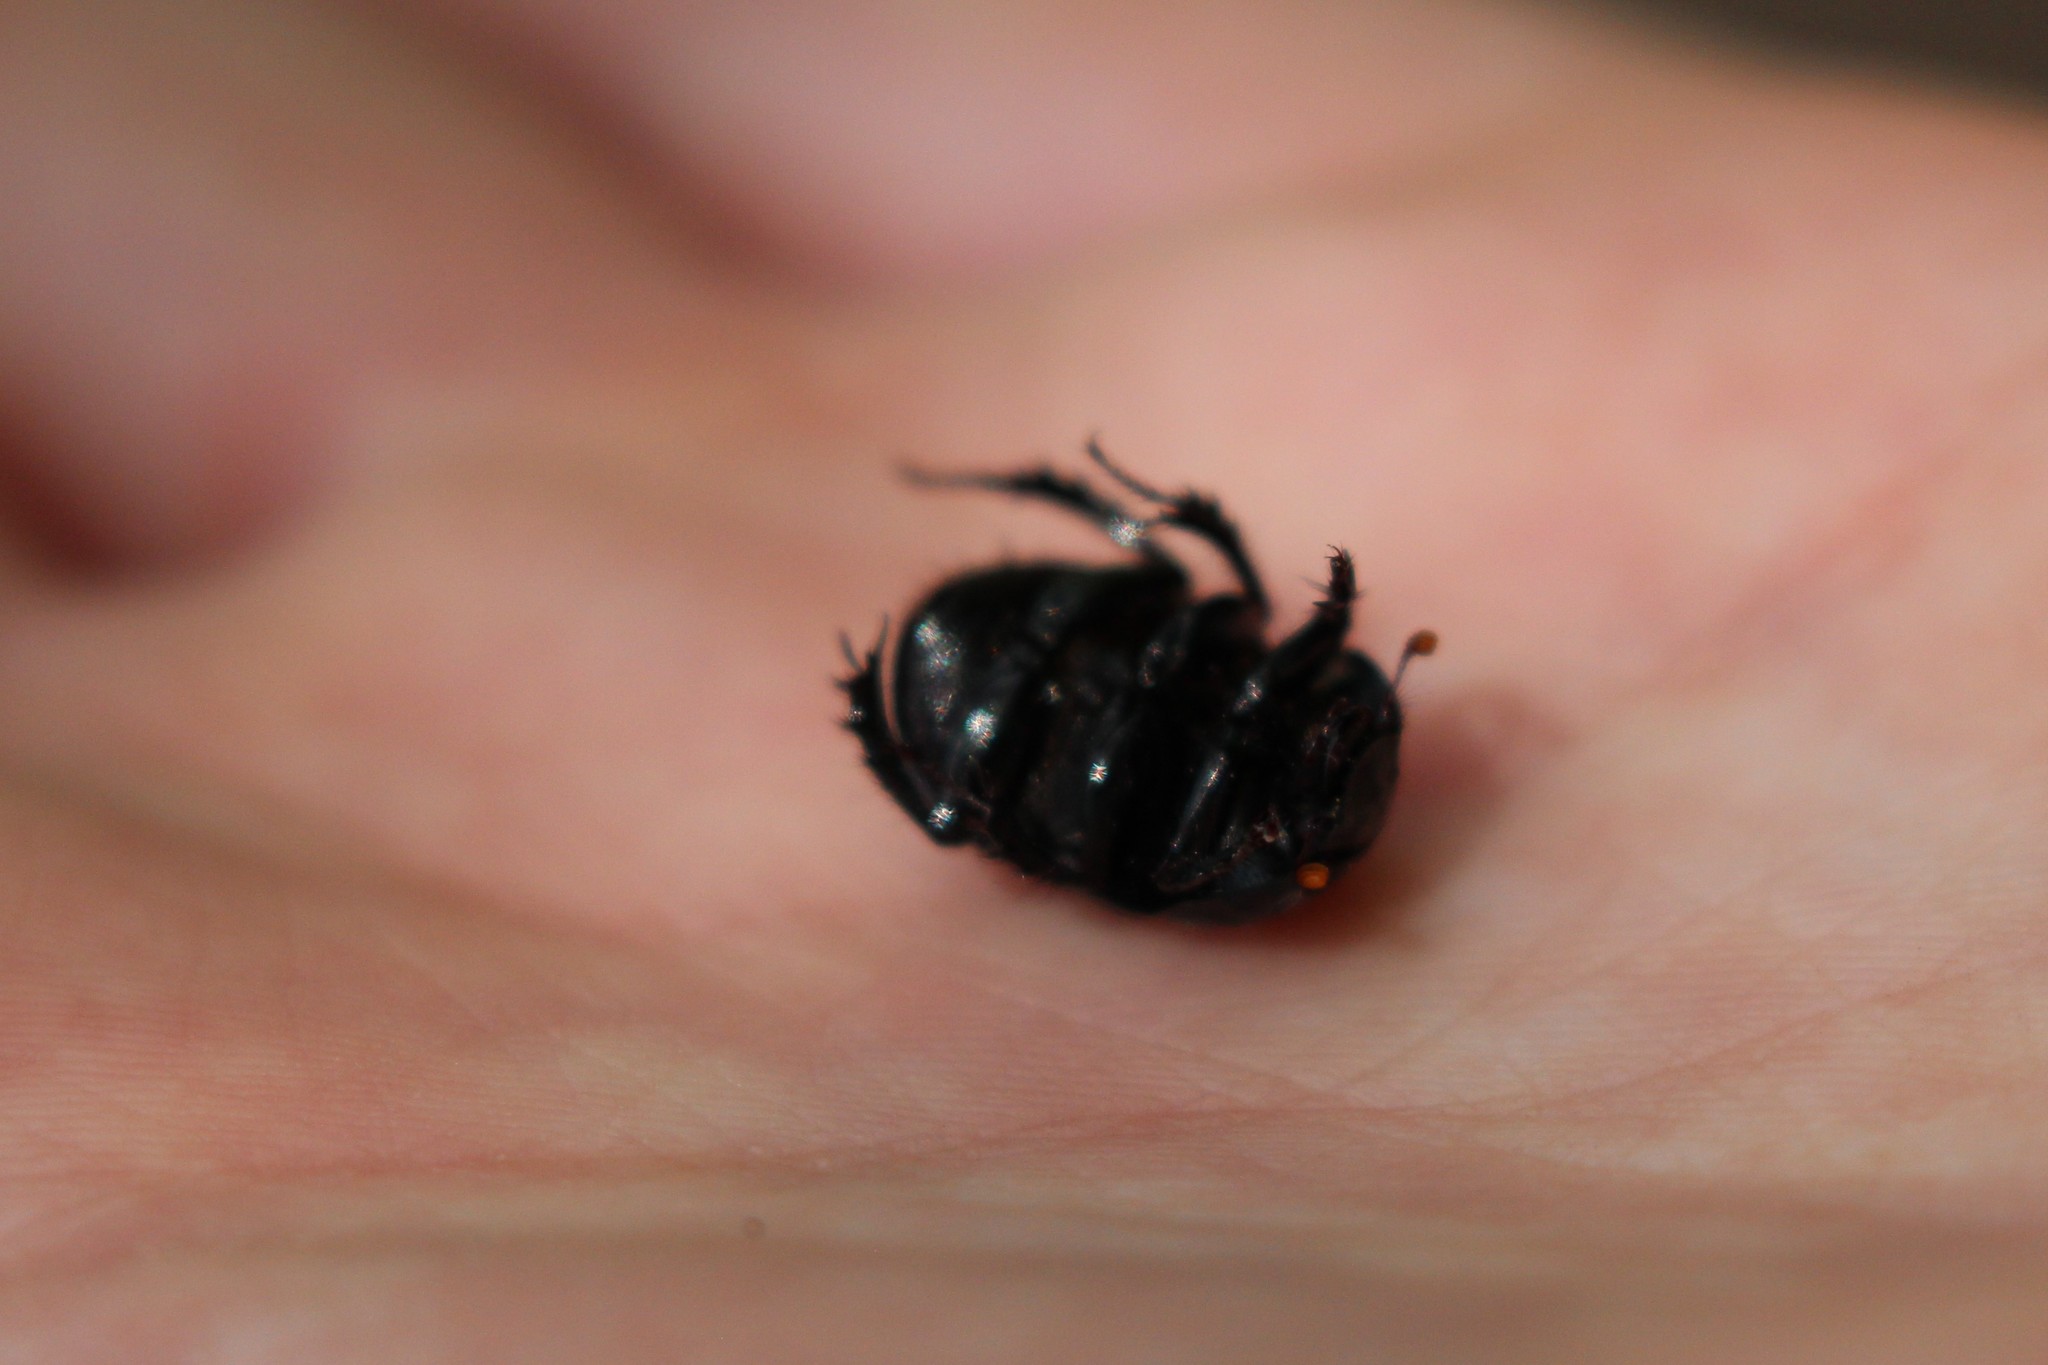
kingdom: Animalia
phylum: Arthropoda
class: Insecta
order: Coleoptera
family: Geotrupidae
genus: Anoplotrupes
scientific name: Anoplotrupes balyi
